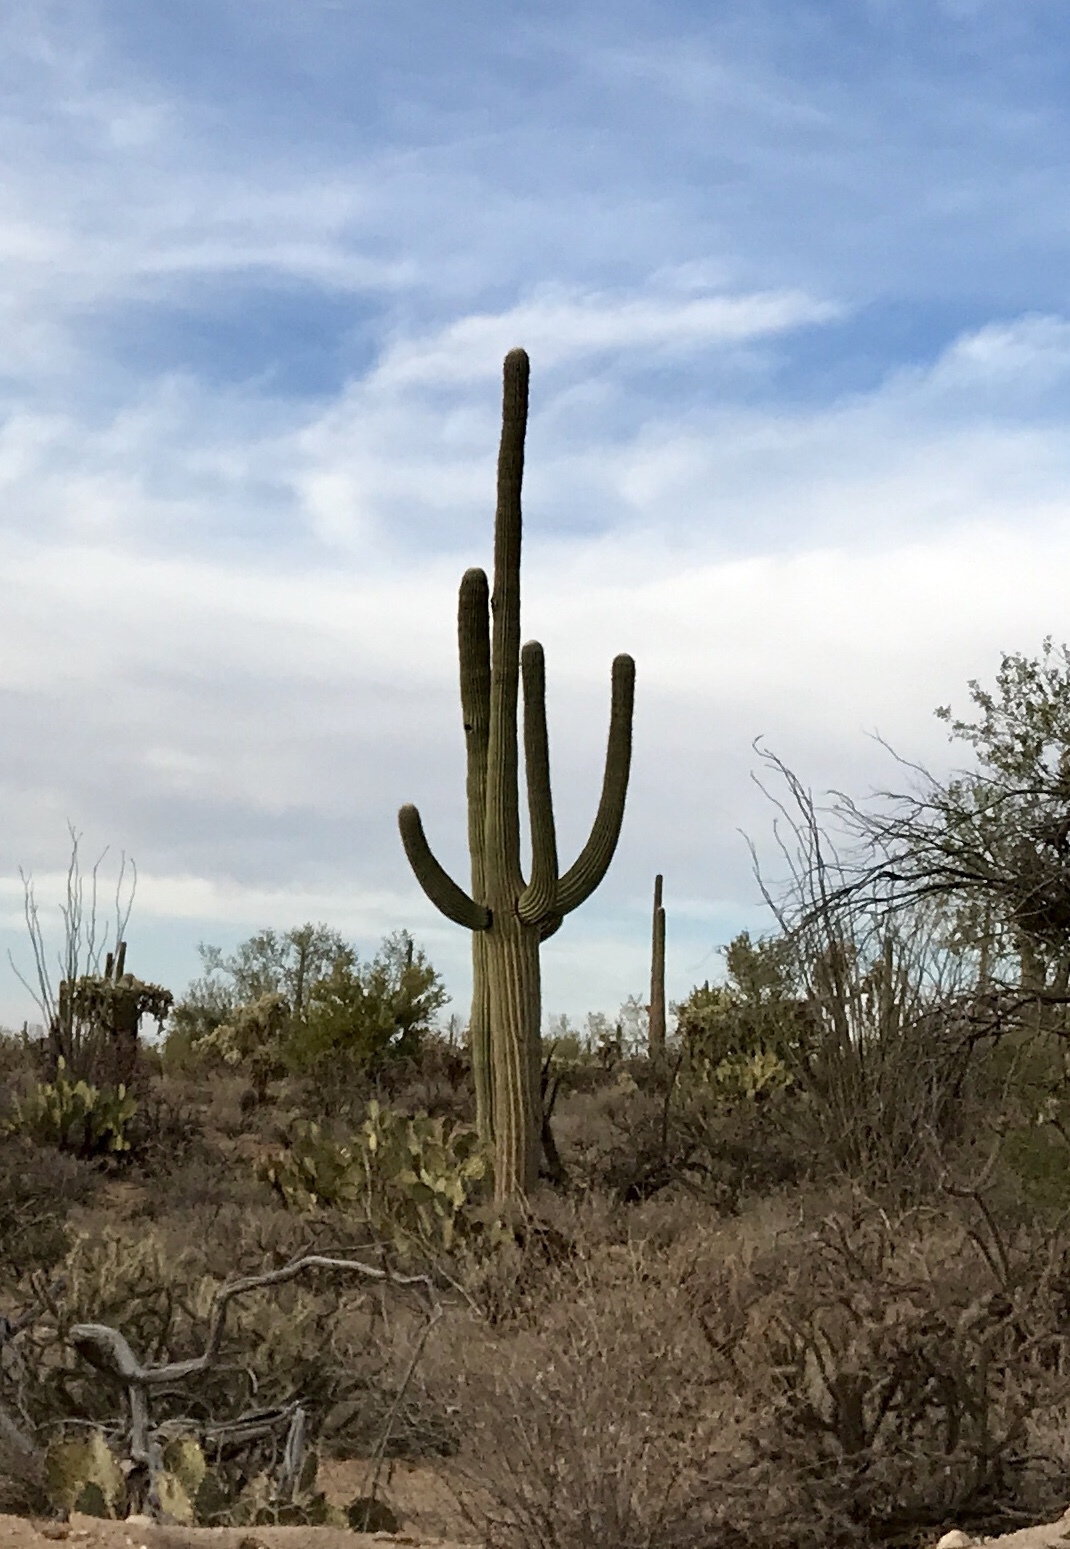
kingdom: Plantae
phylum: Tracheophyta
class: Magnoliopsida
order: Caryophyllales
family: Cactaceae
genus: Carnegiea
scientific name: Carnegiea gigantea
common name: Saguaro
